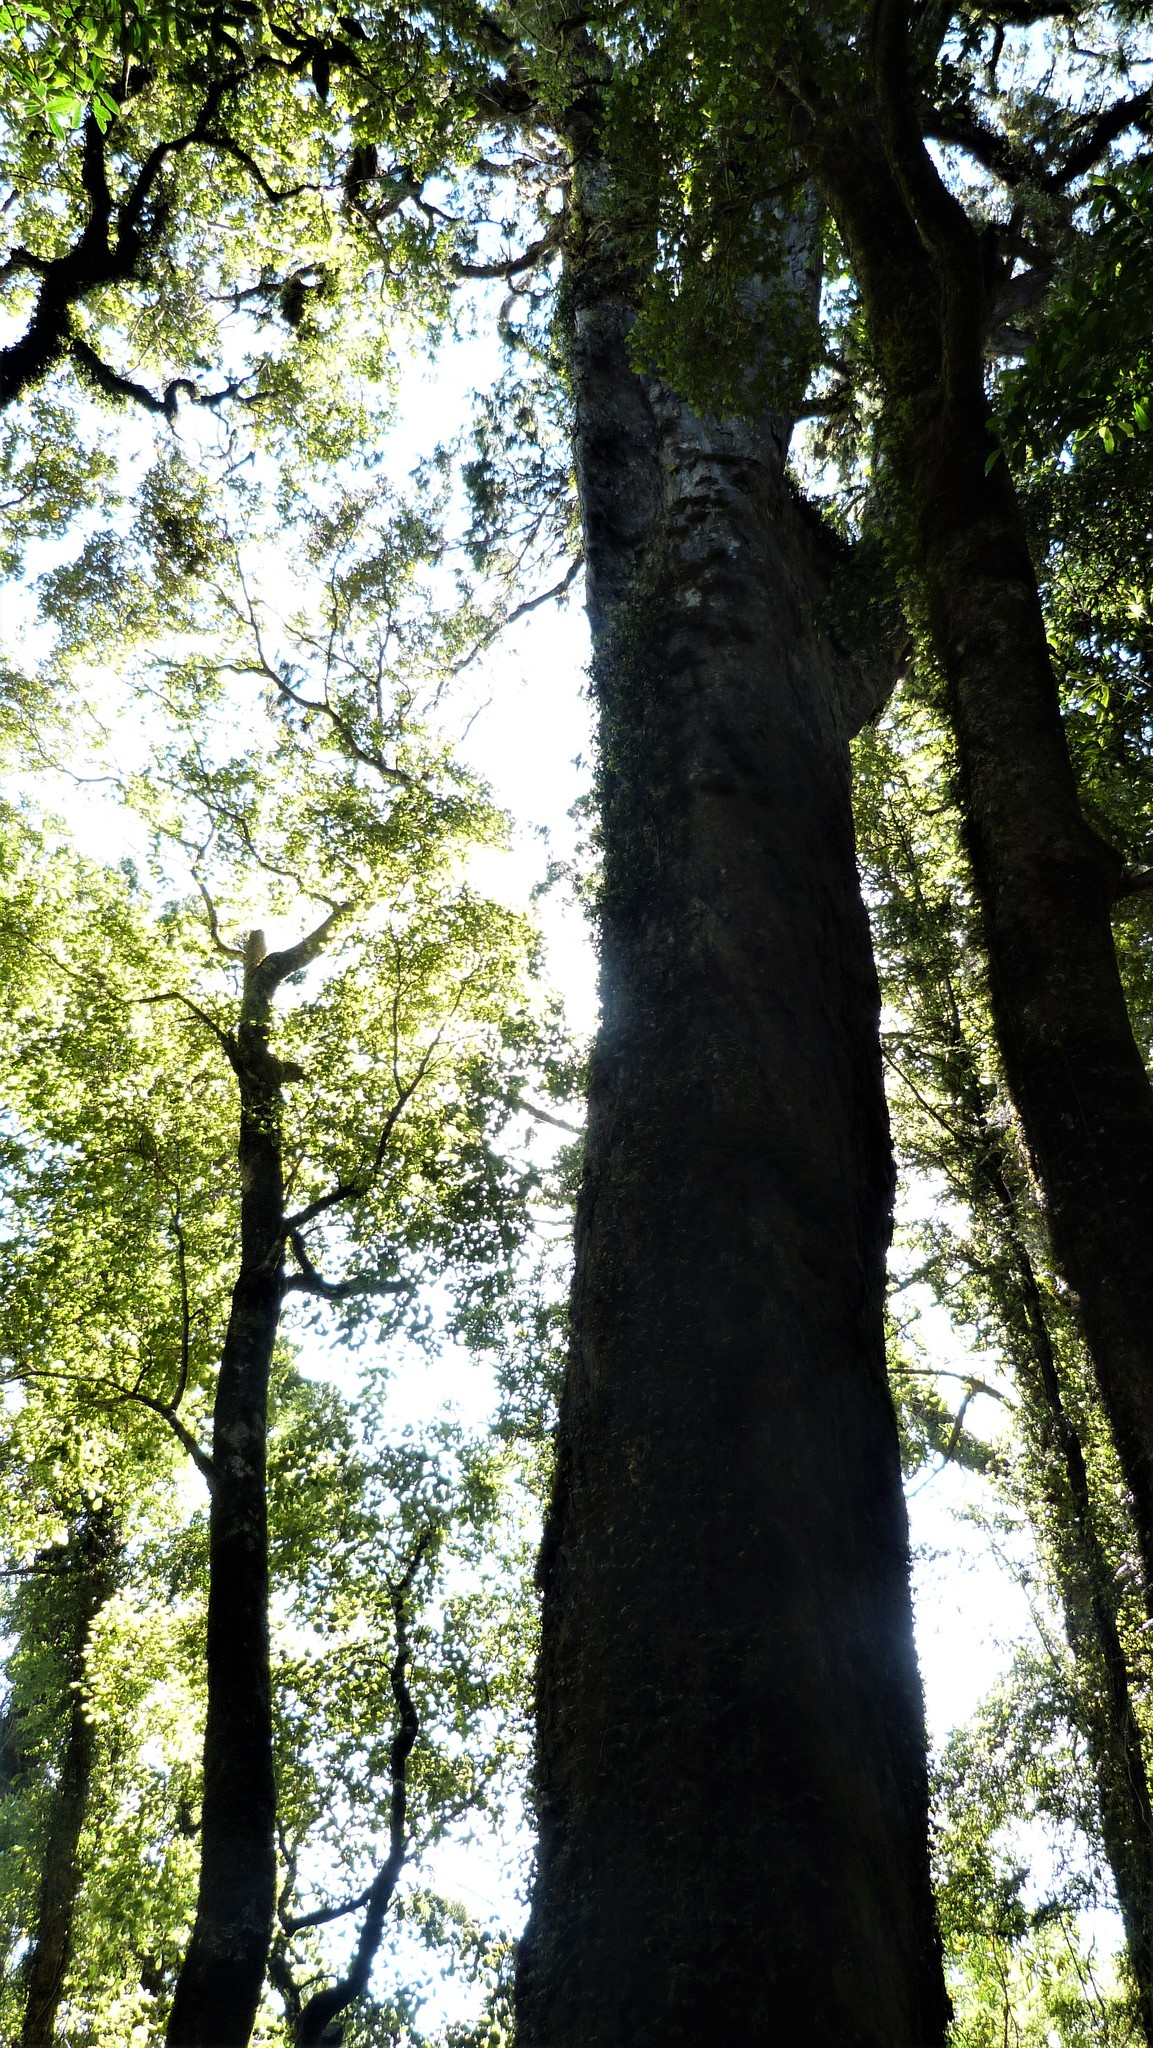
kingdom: Plantae
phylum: Tracheophyta
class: Pinopsida
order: Pinales
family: Podocarpaceae
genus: Dacrydium
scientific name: Dacrydium cupressinum
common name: Red pine
